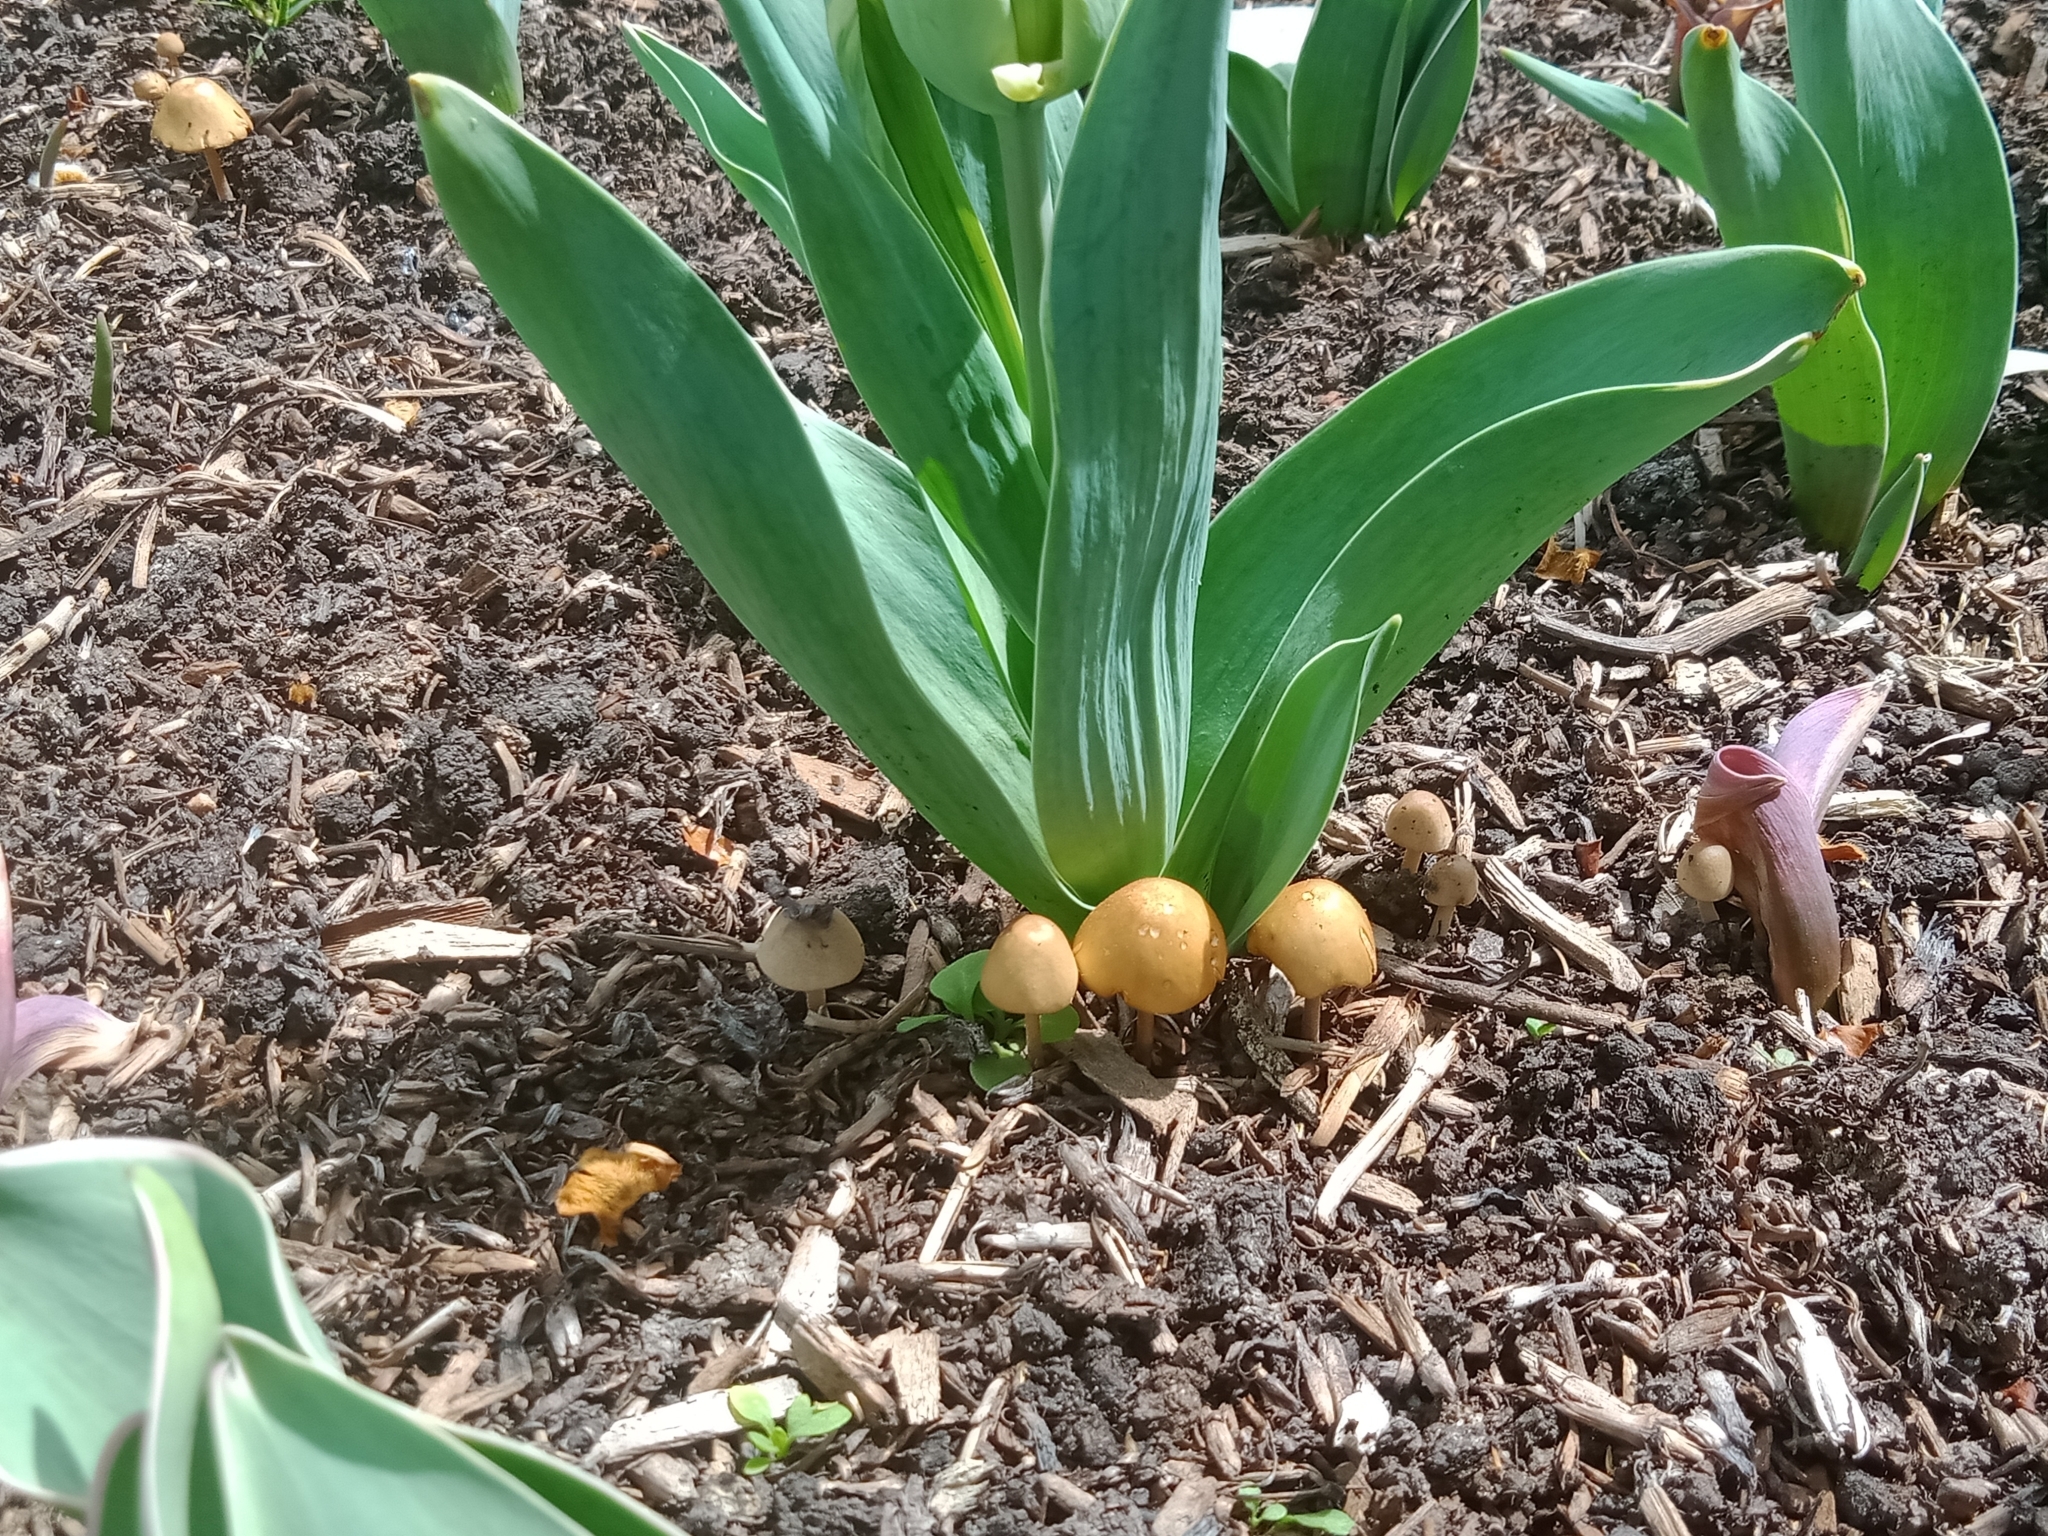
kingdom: Fungi
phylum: Basidiomycota
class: Agaricomycetes
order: Agaricales
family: Bolbitiaceae
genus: Conocybe
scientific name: Conocybe aurea
